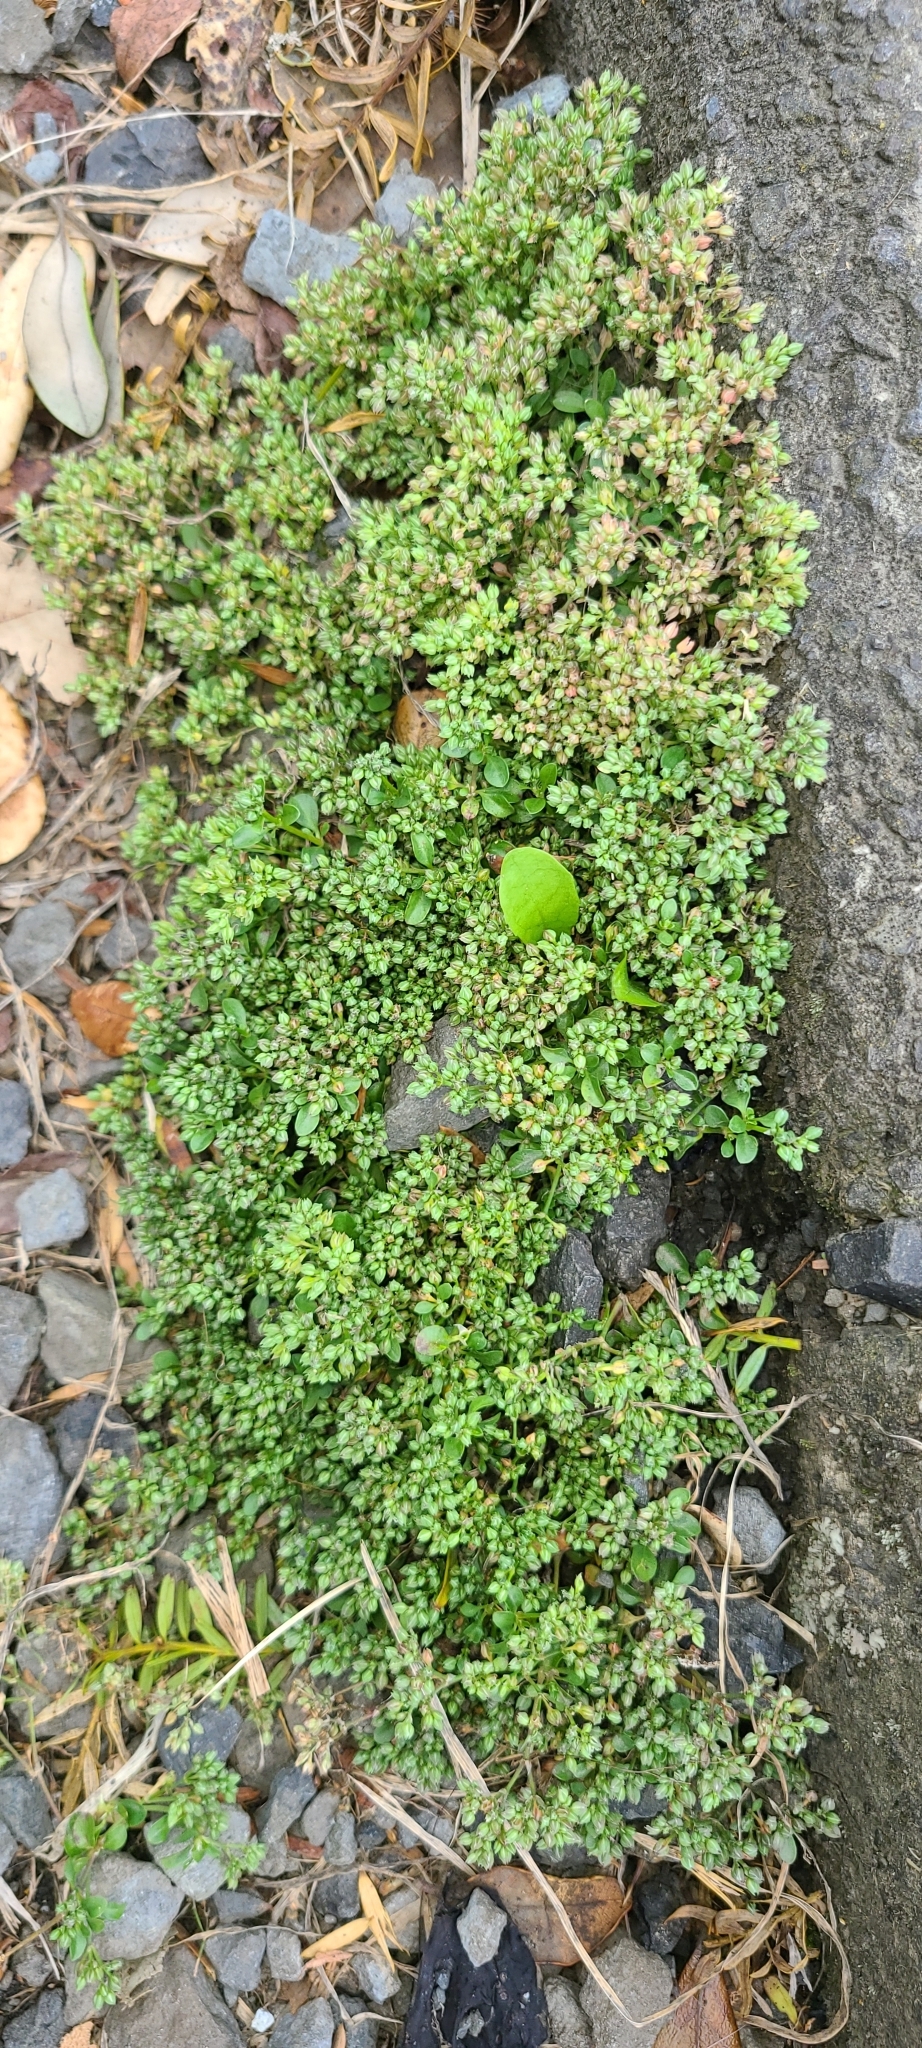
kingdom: Plantae
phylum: Tracheophyta
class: Magnoliopsida
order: Caryophyllales
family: Caryophyllaceae
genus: Polycarpon
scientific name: Polycarpon tetraphyllum
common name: Four-leaved all-seed
